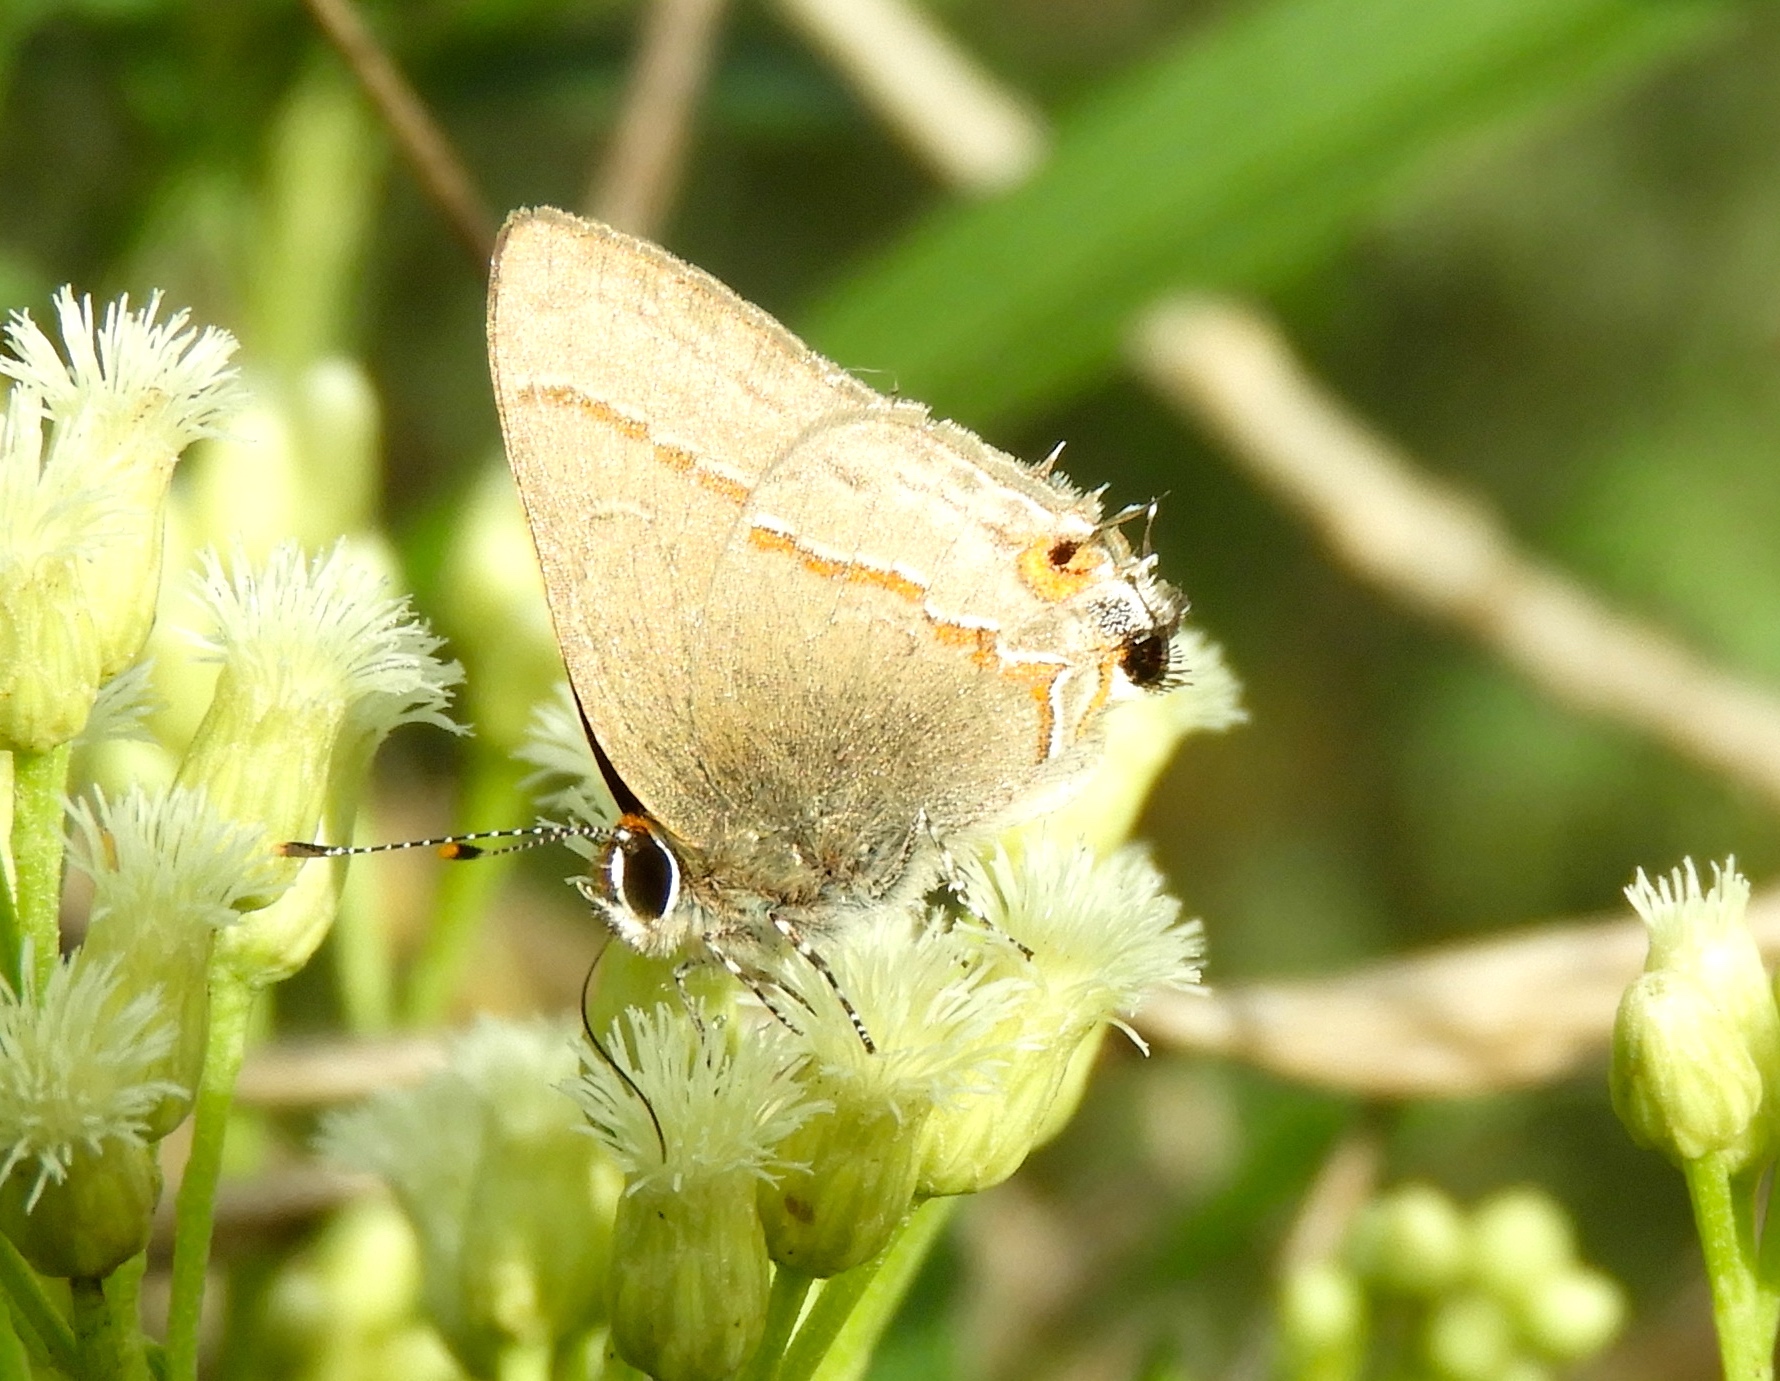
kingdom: Animalia
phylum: Arthropoda
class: Insecta
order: Lepidoptera
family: Lycaenidae
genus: Electrostrymon
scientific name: Electrostrymon endymion
